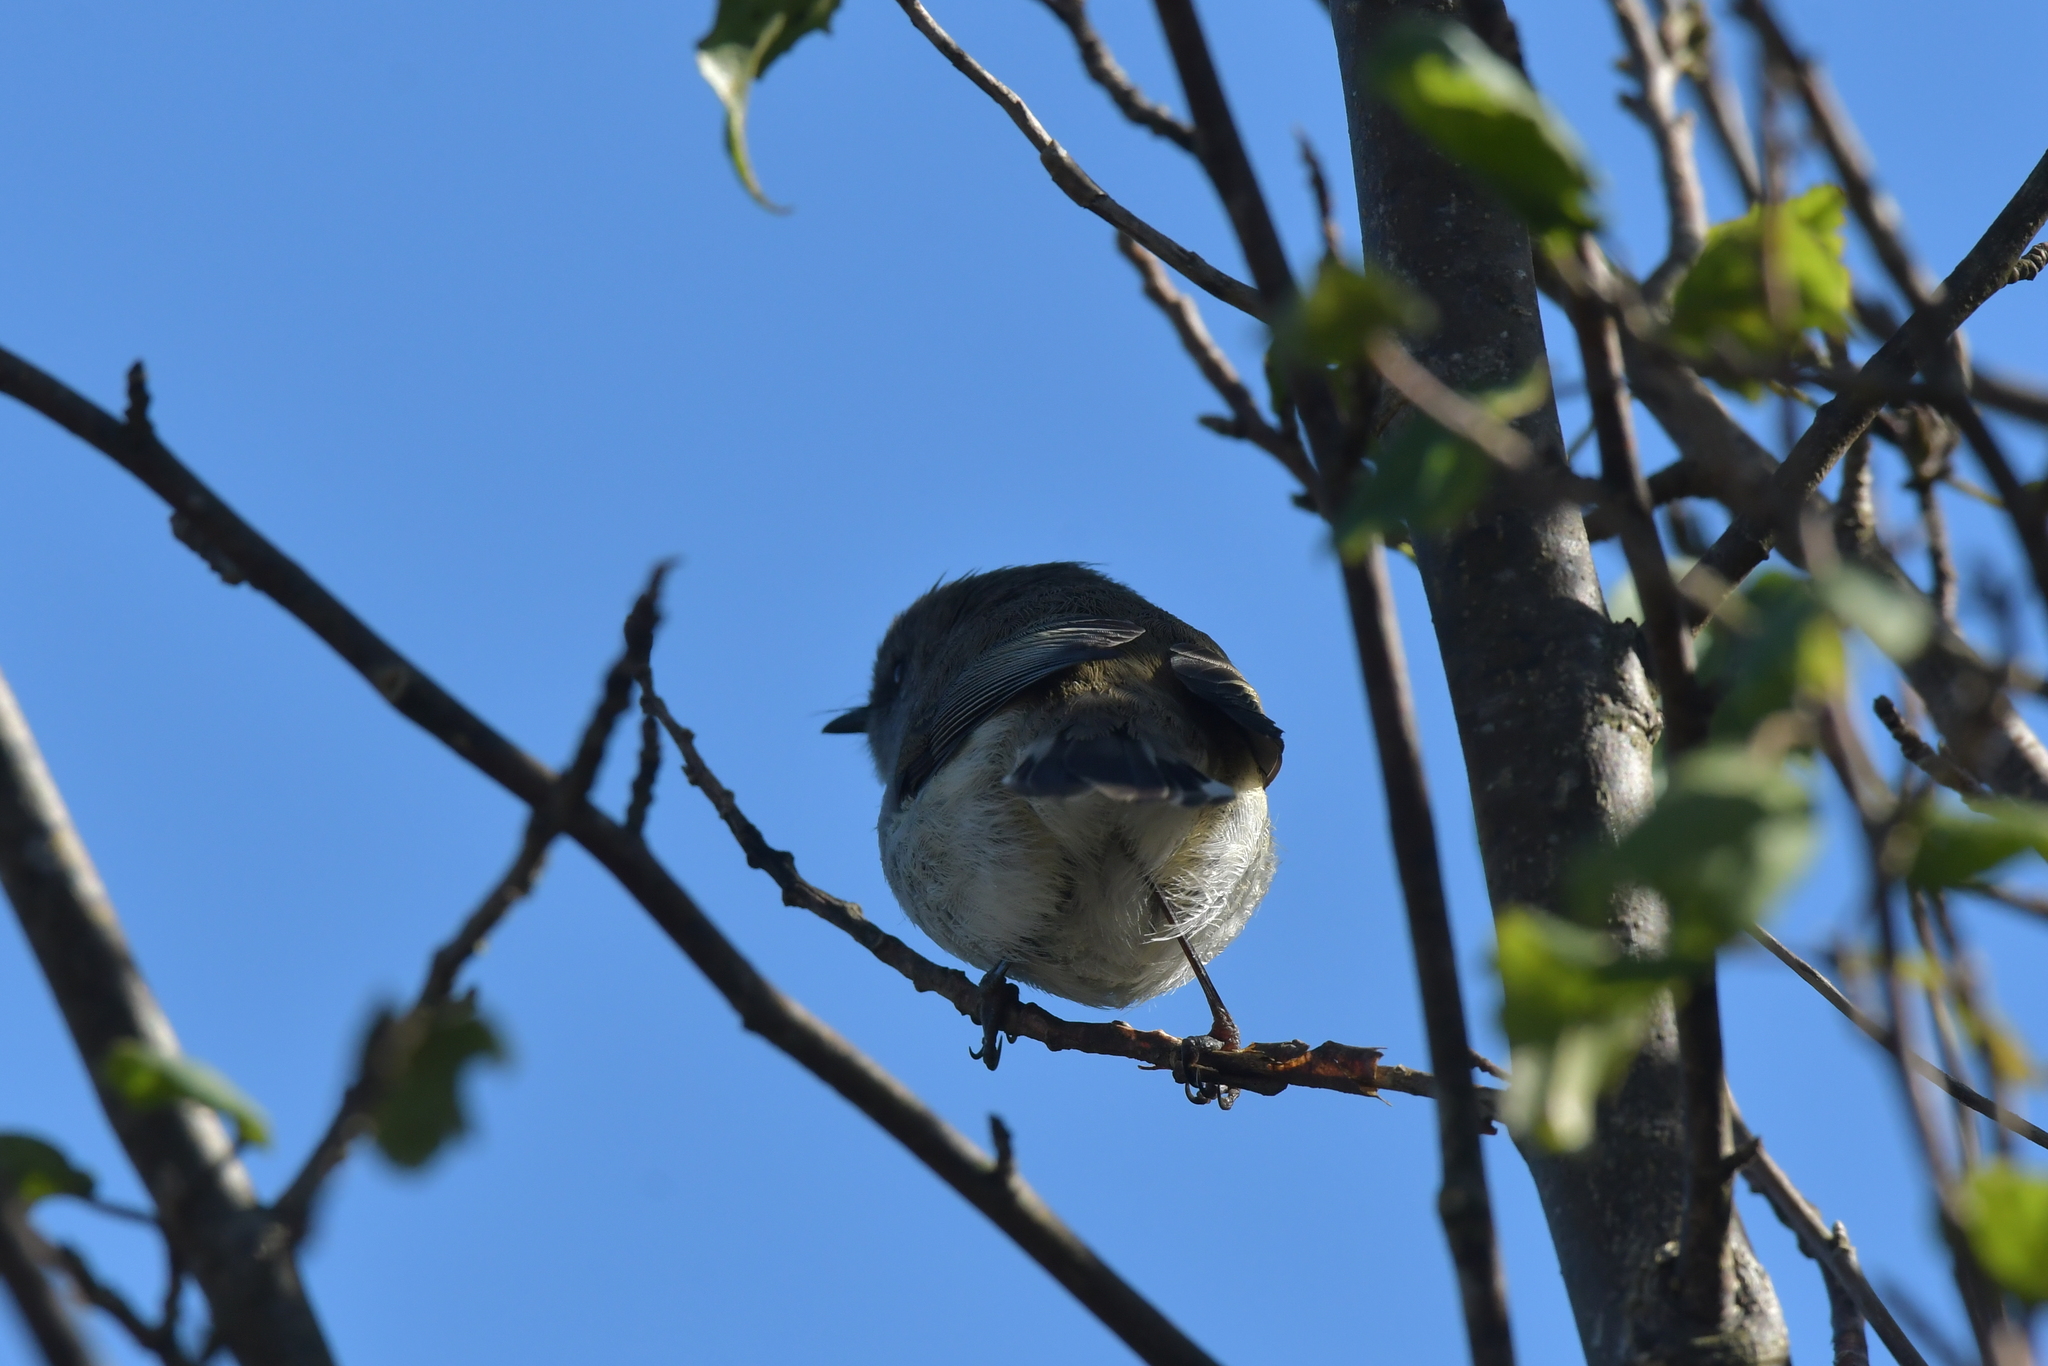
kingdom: Animalia
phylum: Chordata
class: Aves
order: Passeriformes
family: Acanthizidae
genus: Gerygone
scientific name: Gerygone igata
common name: Grey gerygone
